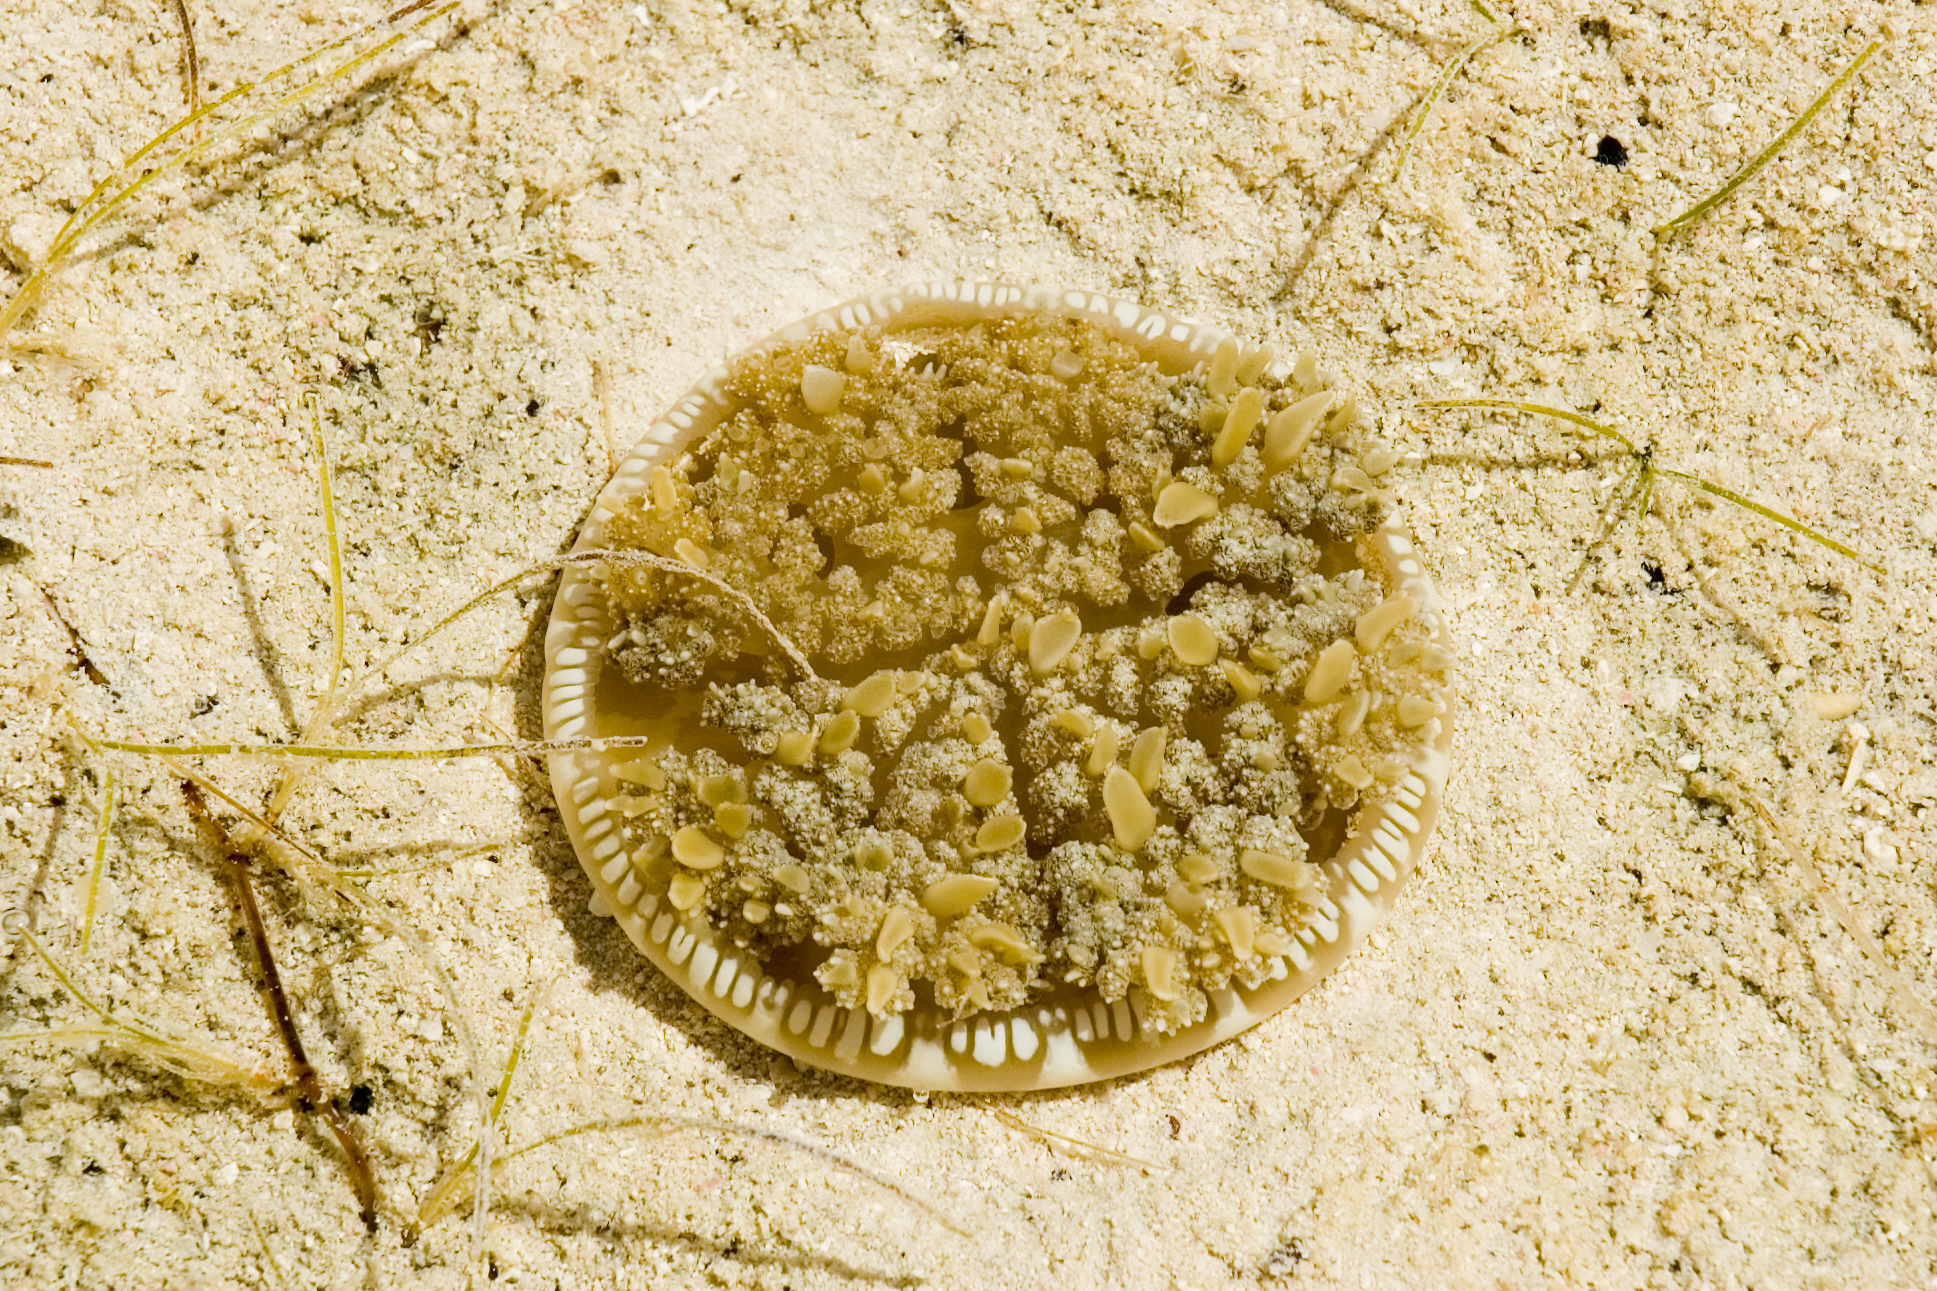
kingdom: Animalia
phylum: Cnidaria
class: Scyphozoa
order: Rhizostomeae
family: Cassiopeidae
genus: Cassiopea
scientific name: Cassiopea andromeda
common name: Upside-down jellyfish
